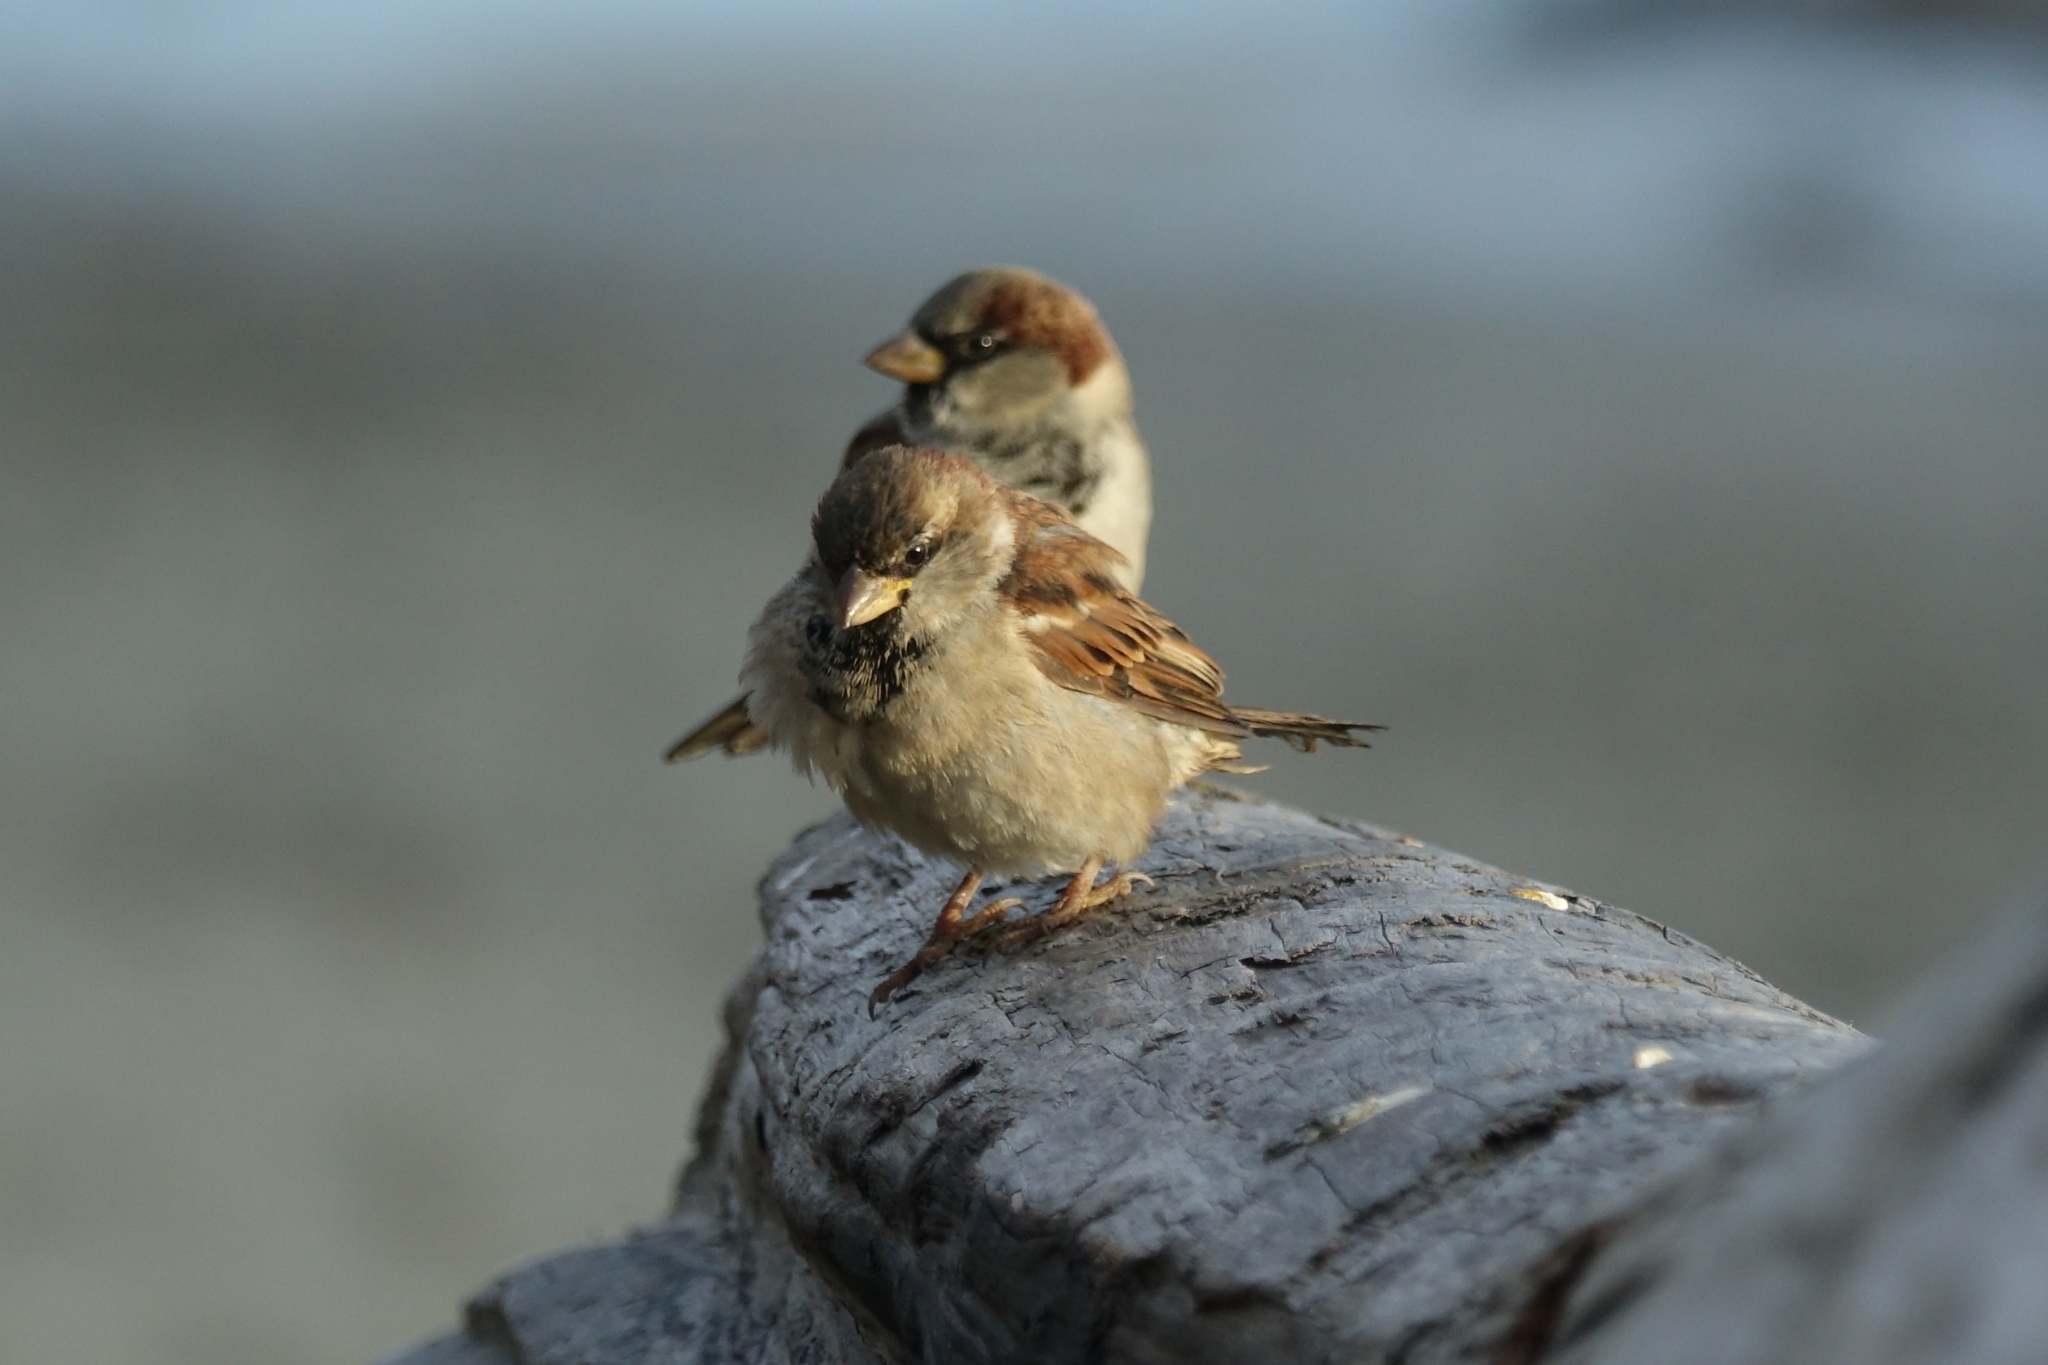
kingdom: Animalia
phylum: Chordata
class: Aves
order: Passeriformes
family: Passeridae
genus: Passer
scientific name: Passer domesticus
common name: House sparrow
